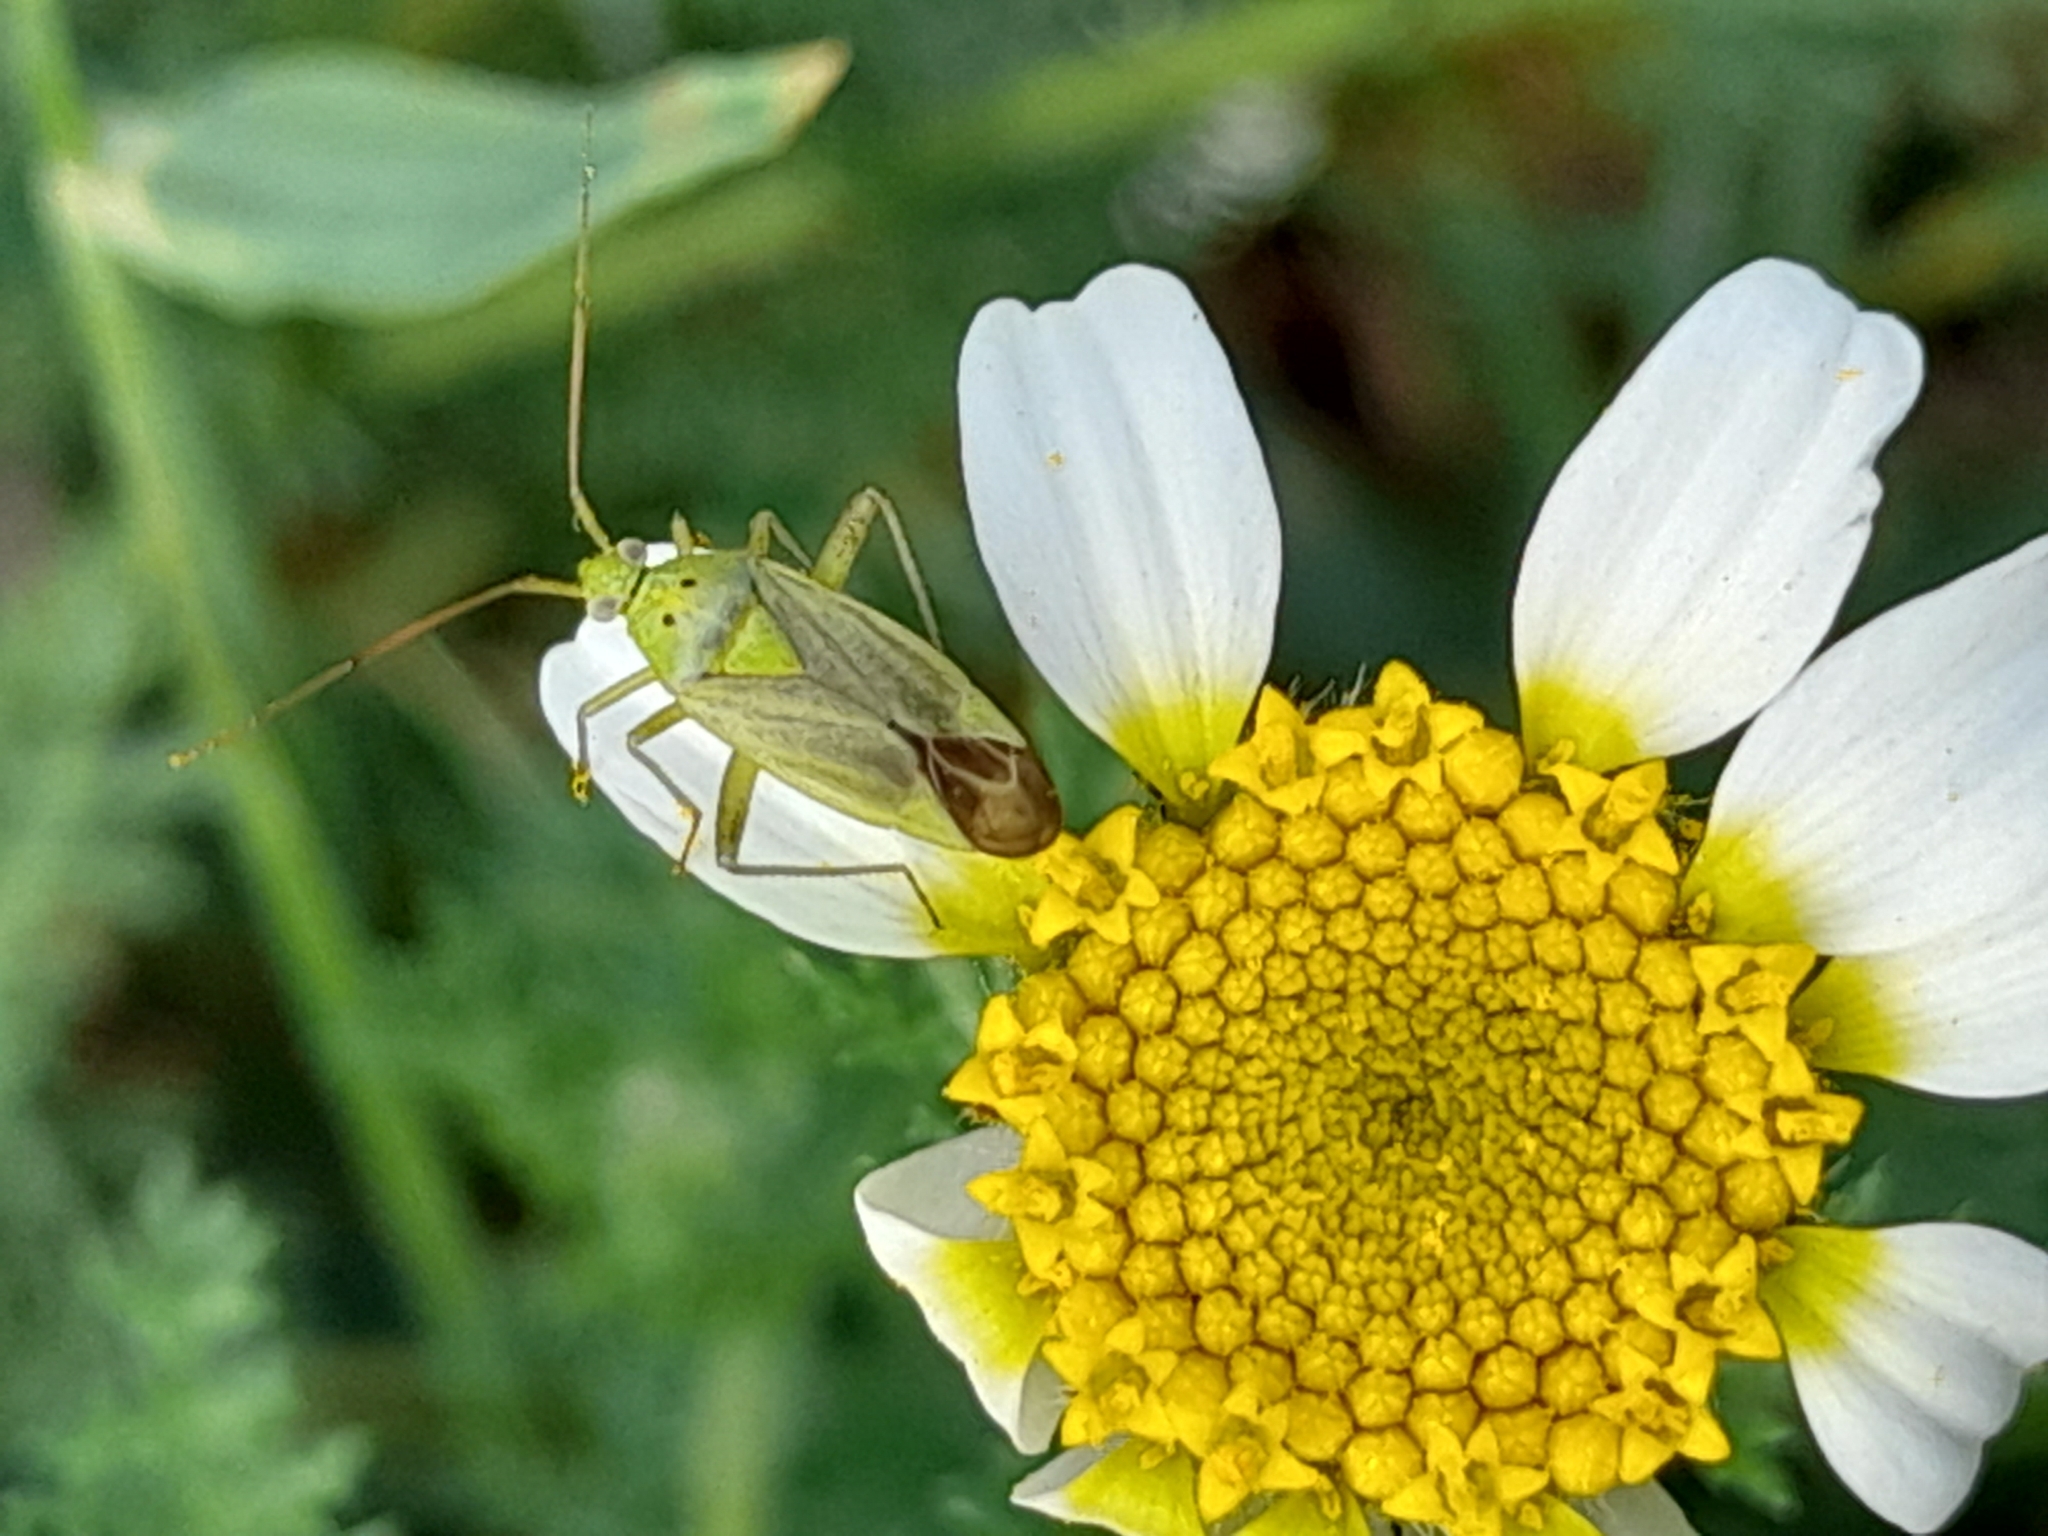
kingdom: Animalia
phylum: Arthropoda
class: Insecta
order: Hemiptera
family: Miridae
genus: Closterotomus
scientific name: Closterotomus norvegicus
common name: Plant bug
